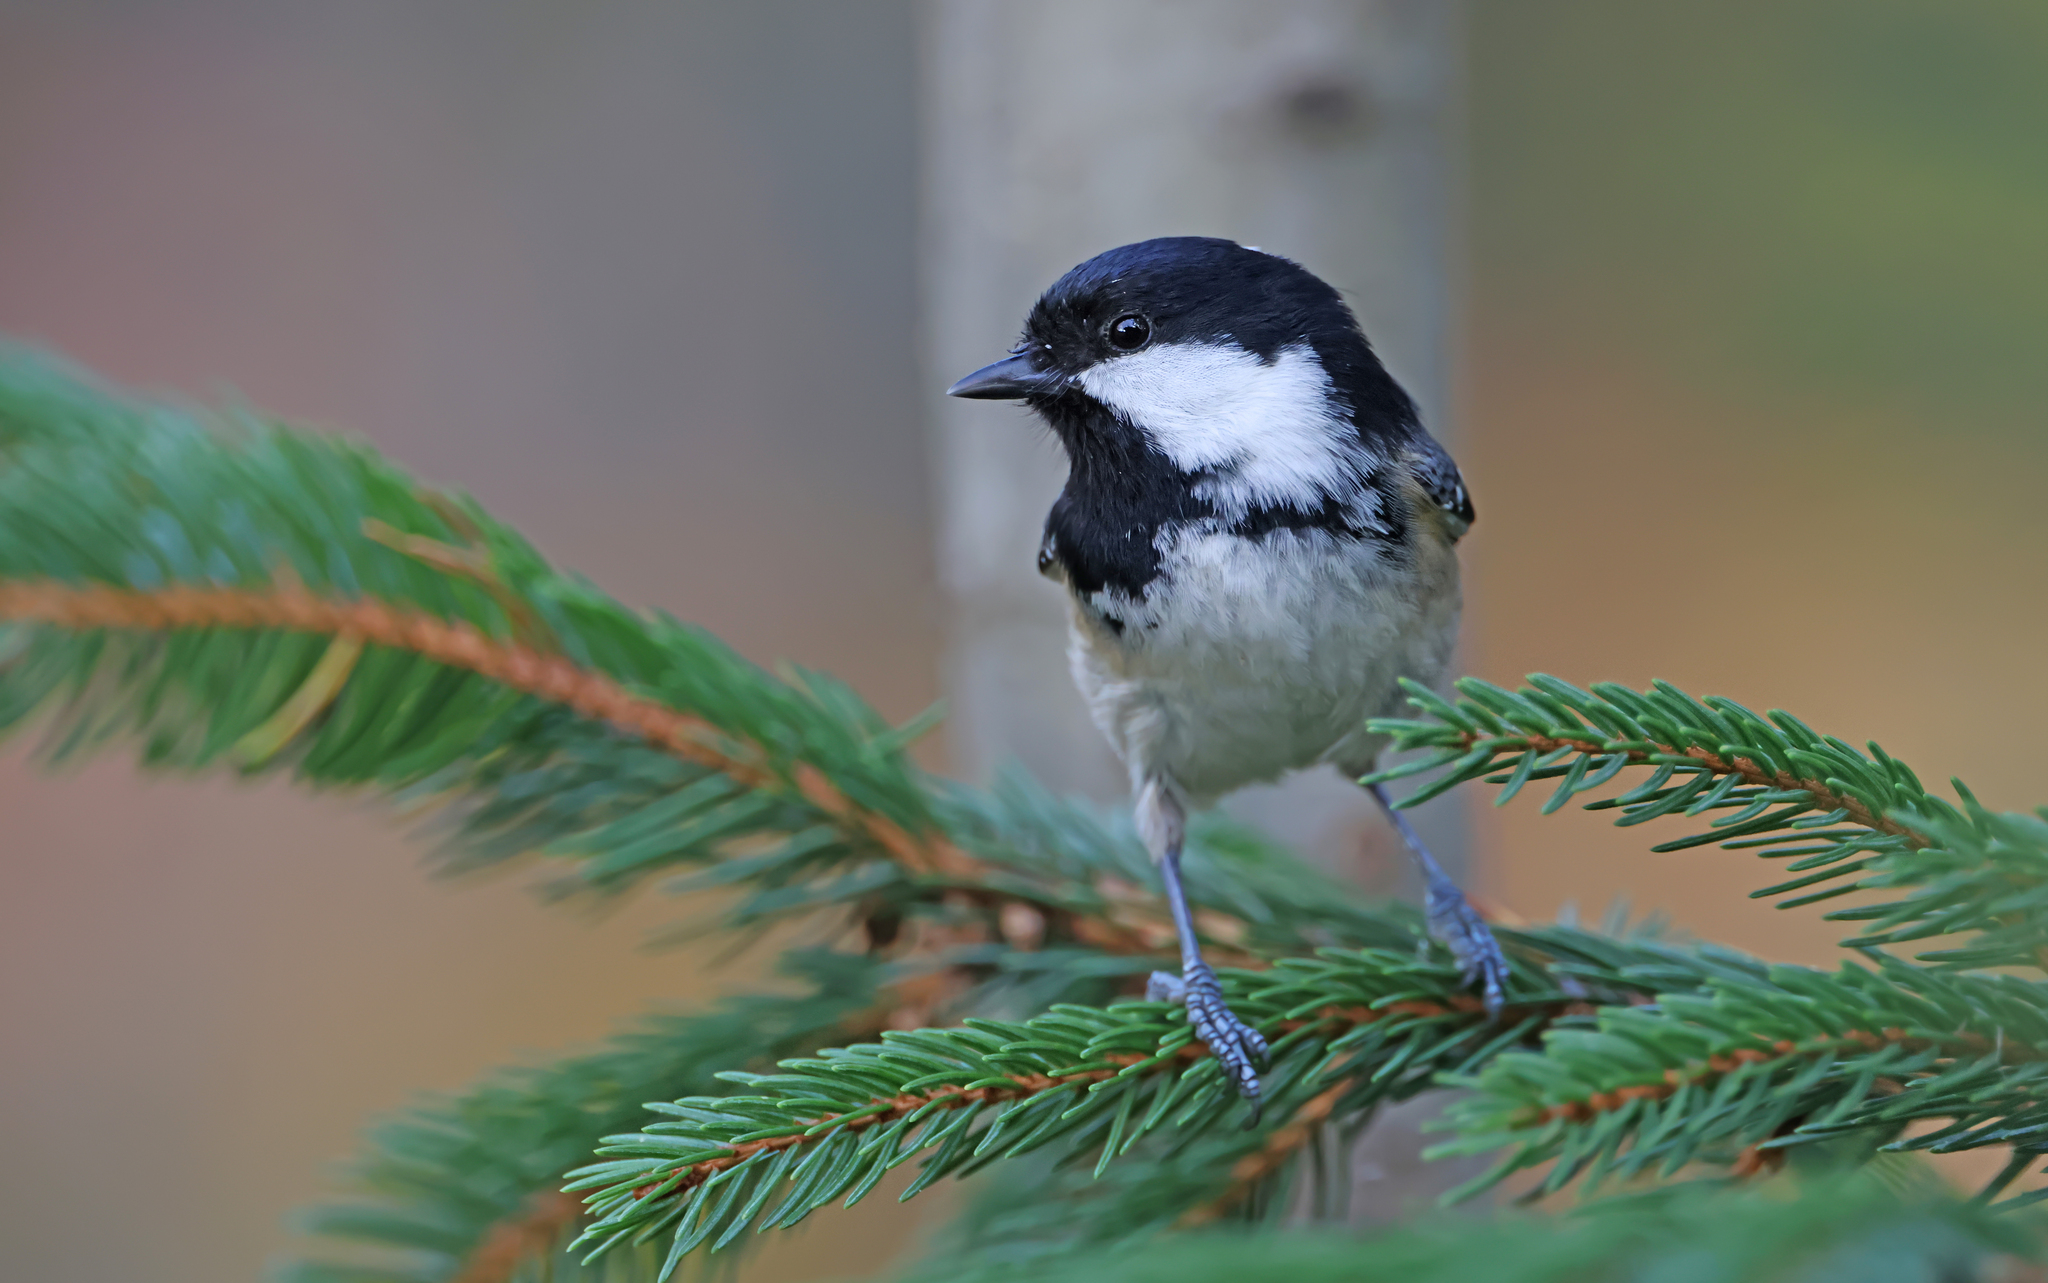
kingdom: Animalia
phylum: Chordata
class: Aves
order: Passeriformes
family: Paridae
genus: Periparus
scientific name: Periparus ater
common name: Coal tit
